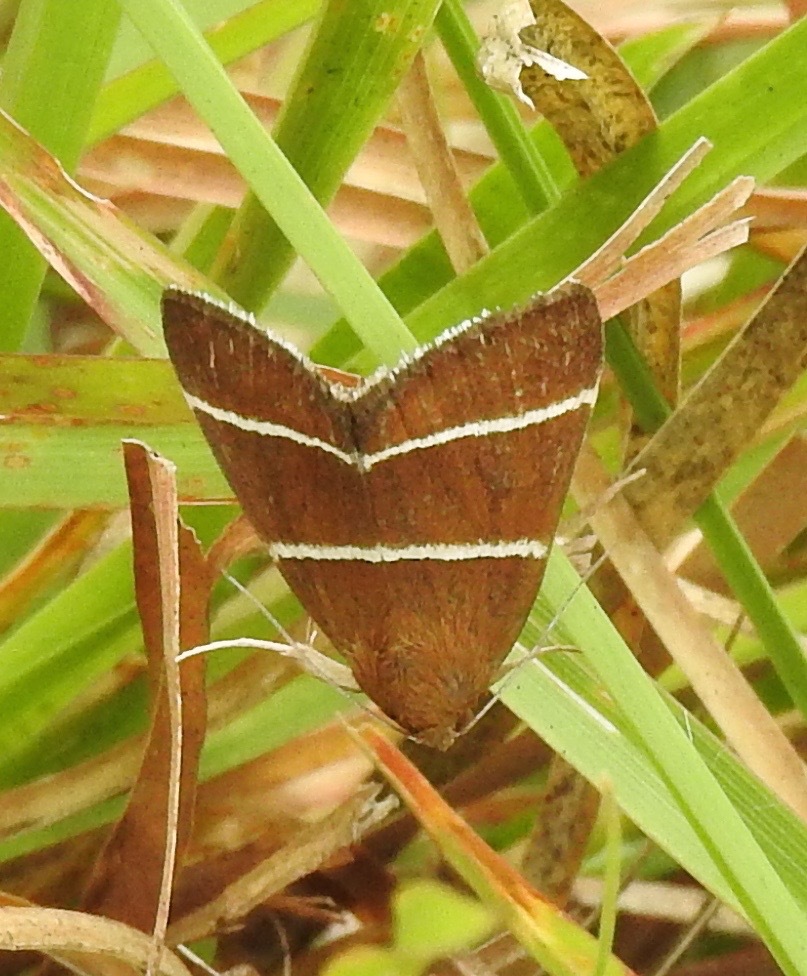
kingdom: Animalia
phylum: Arthropoda
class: Insecta
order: Lepidoptera
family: Erebidae
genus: Argyrostrotis
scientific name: Argyrostrotis quadrifilaris
